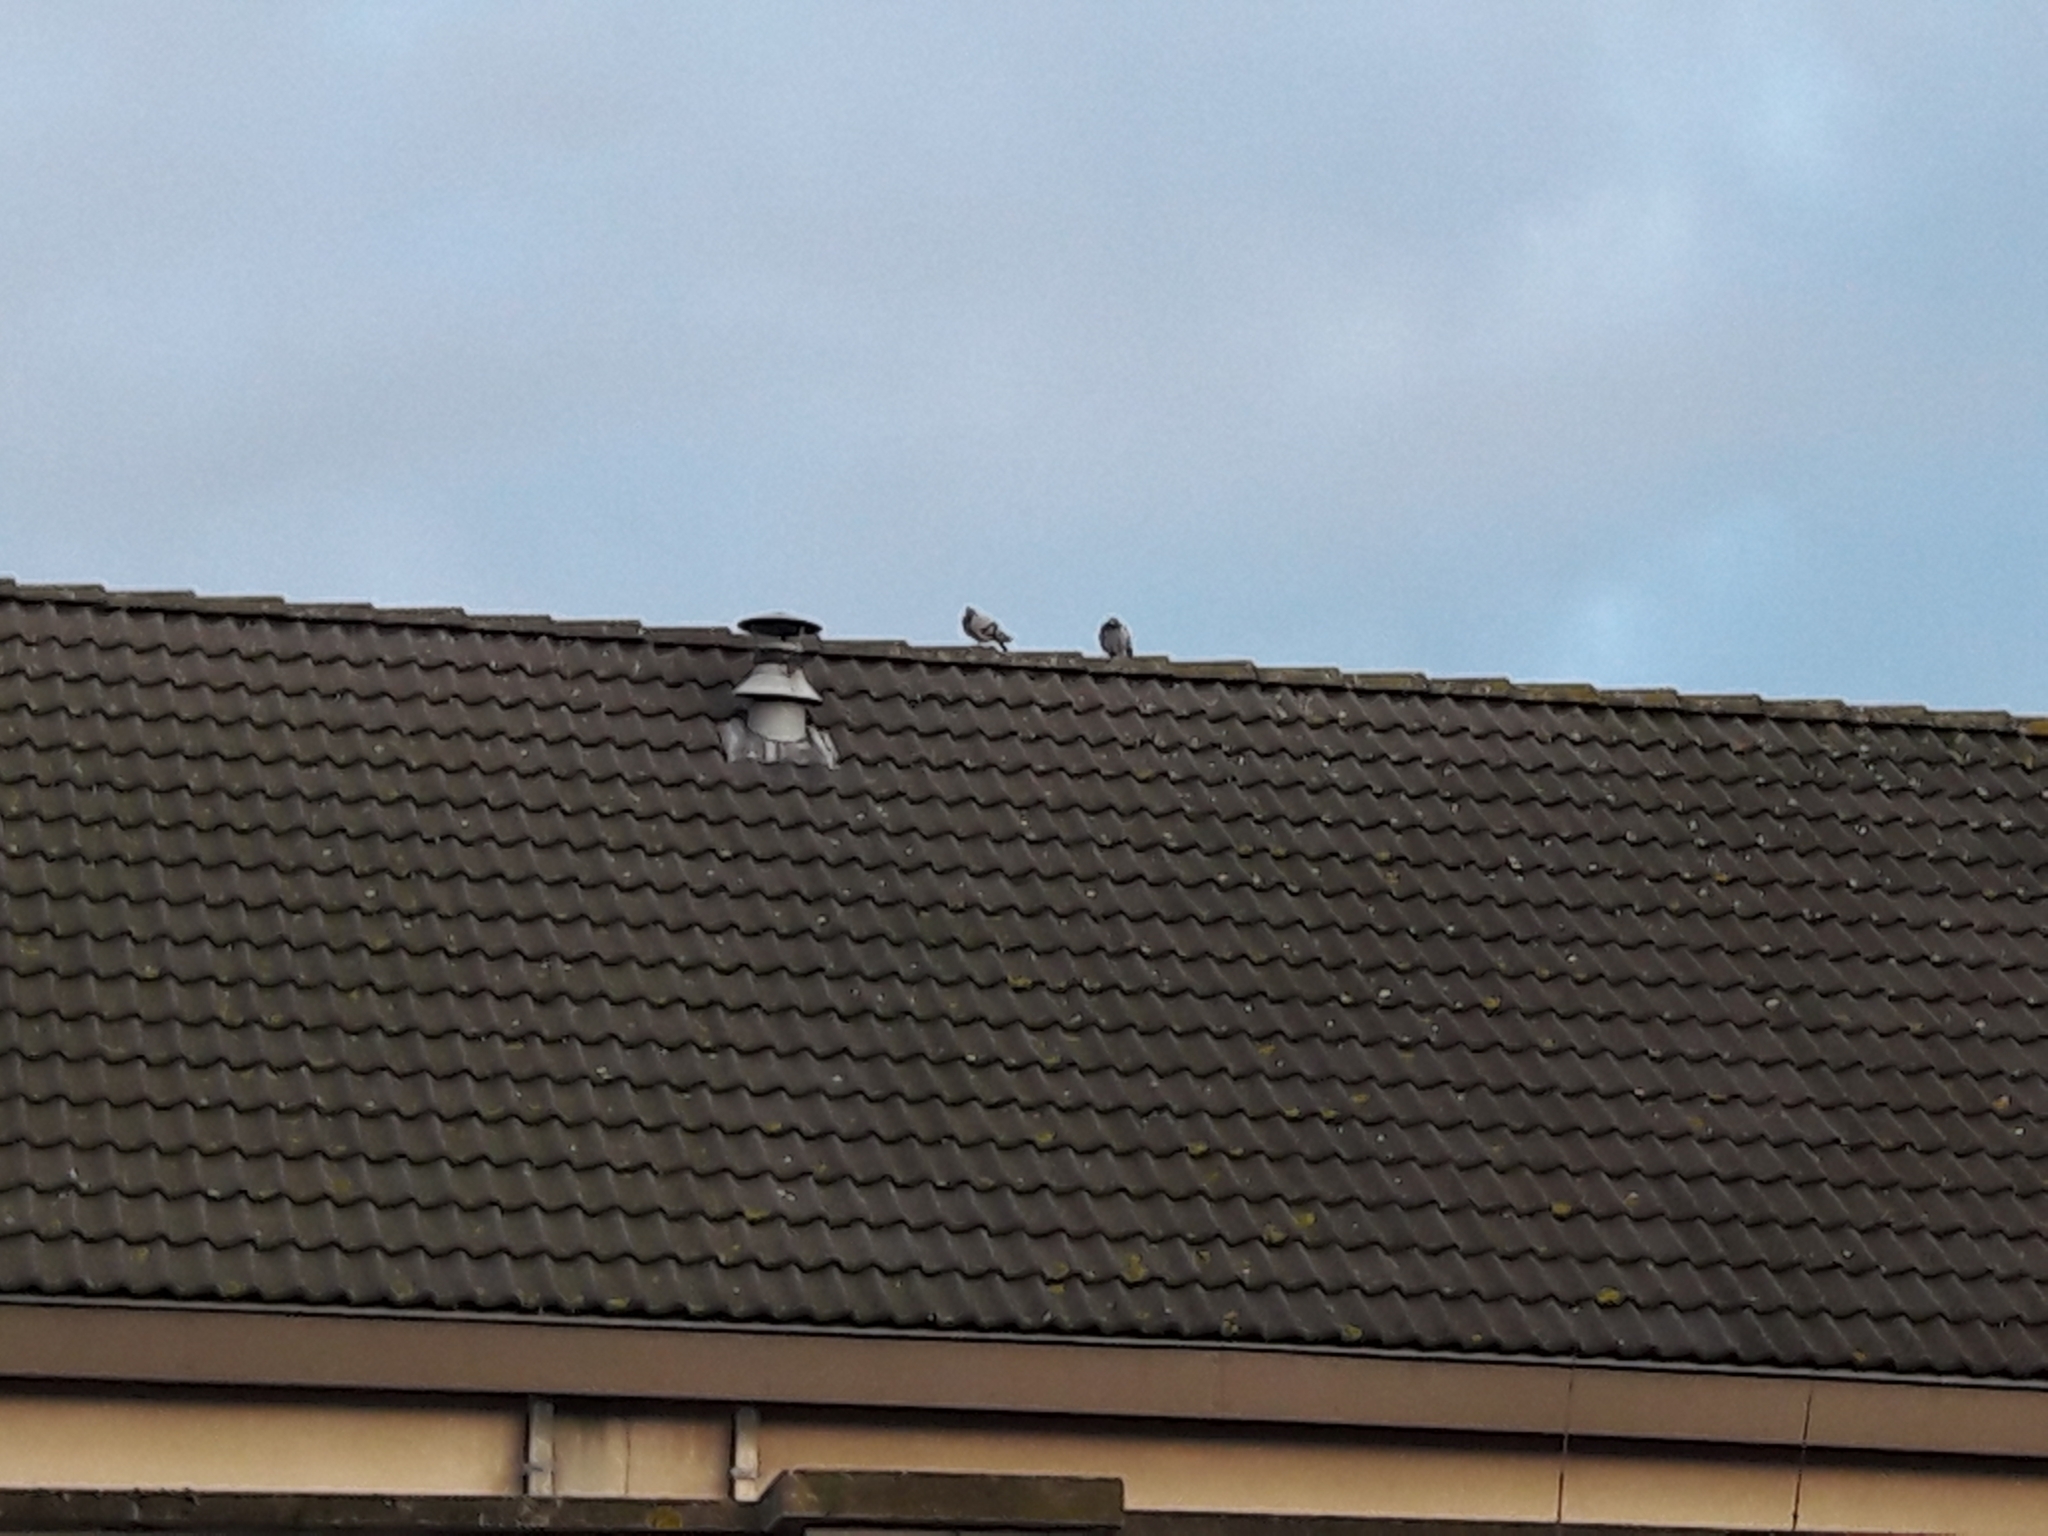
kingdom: Animalia
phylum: Chordata
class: Aves
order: Columbiformes
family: Columbidae
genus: Columba
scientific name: Columba livia
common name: Rock pigeon
